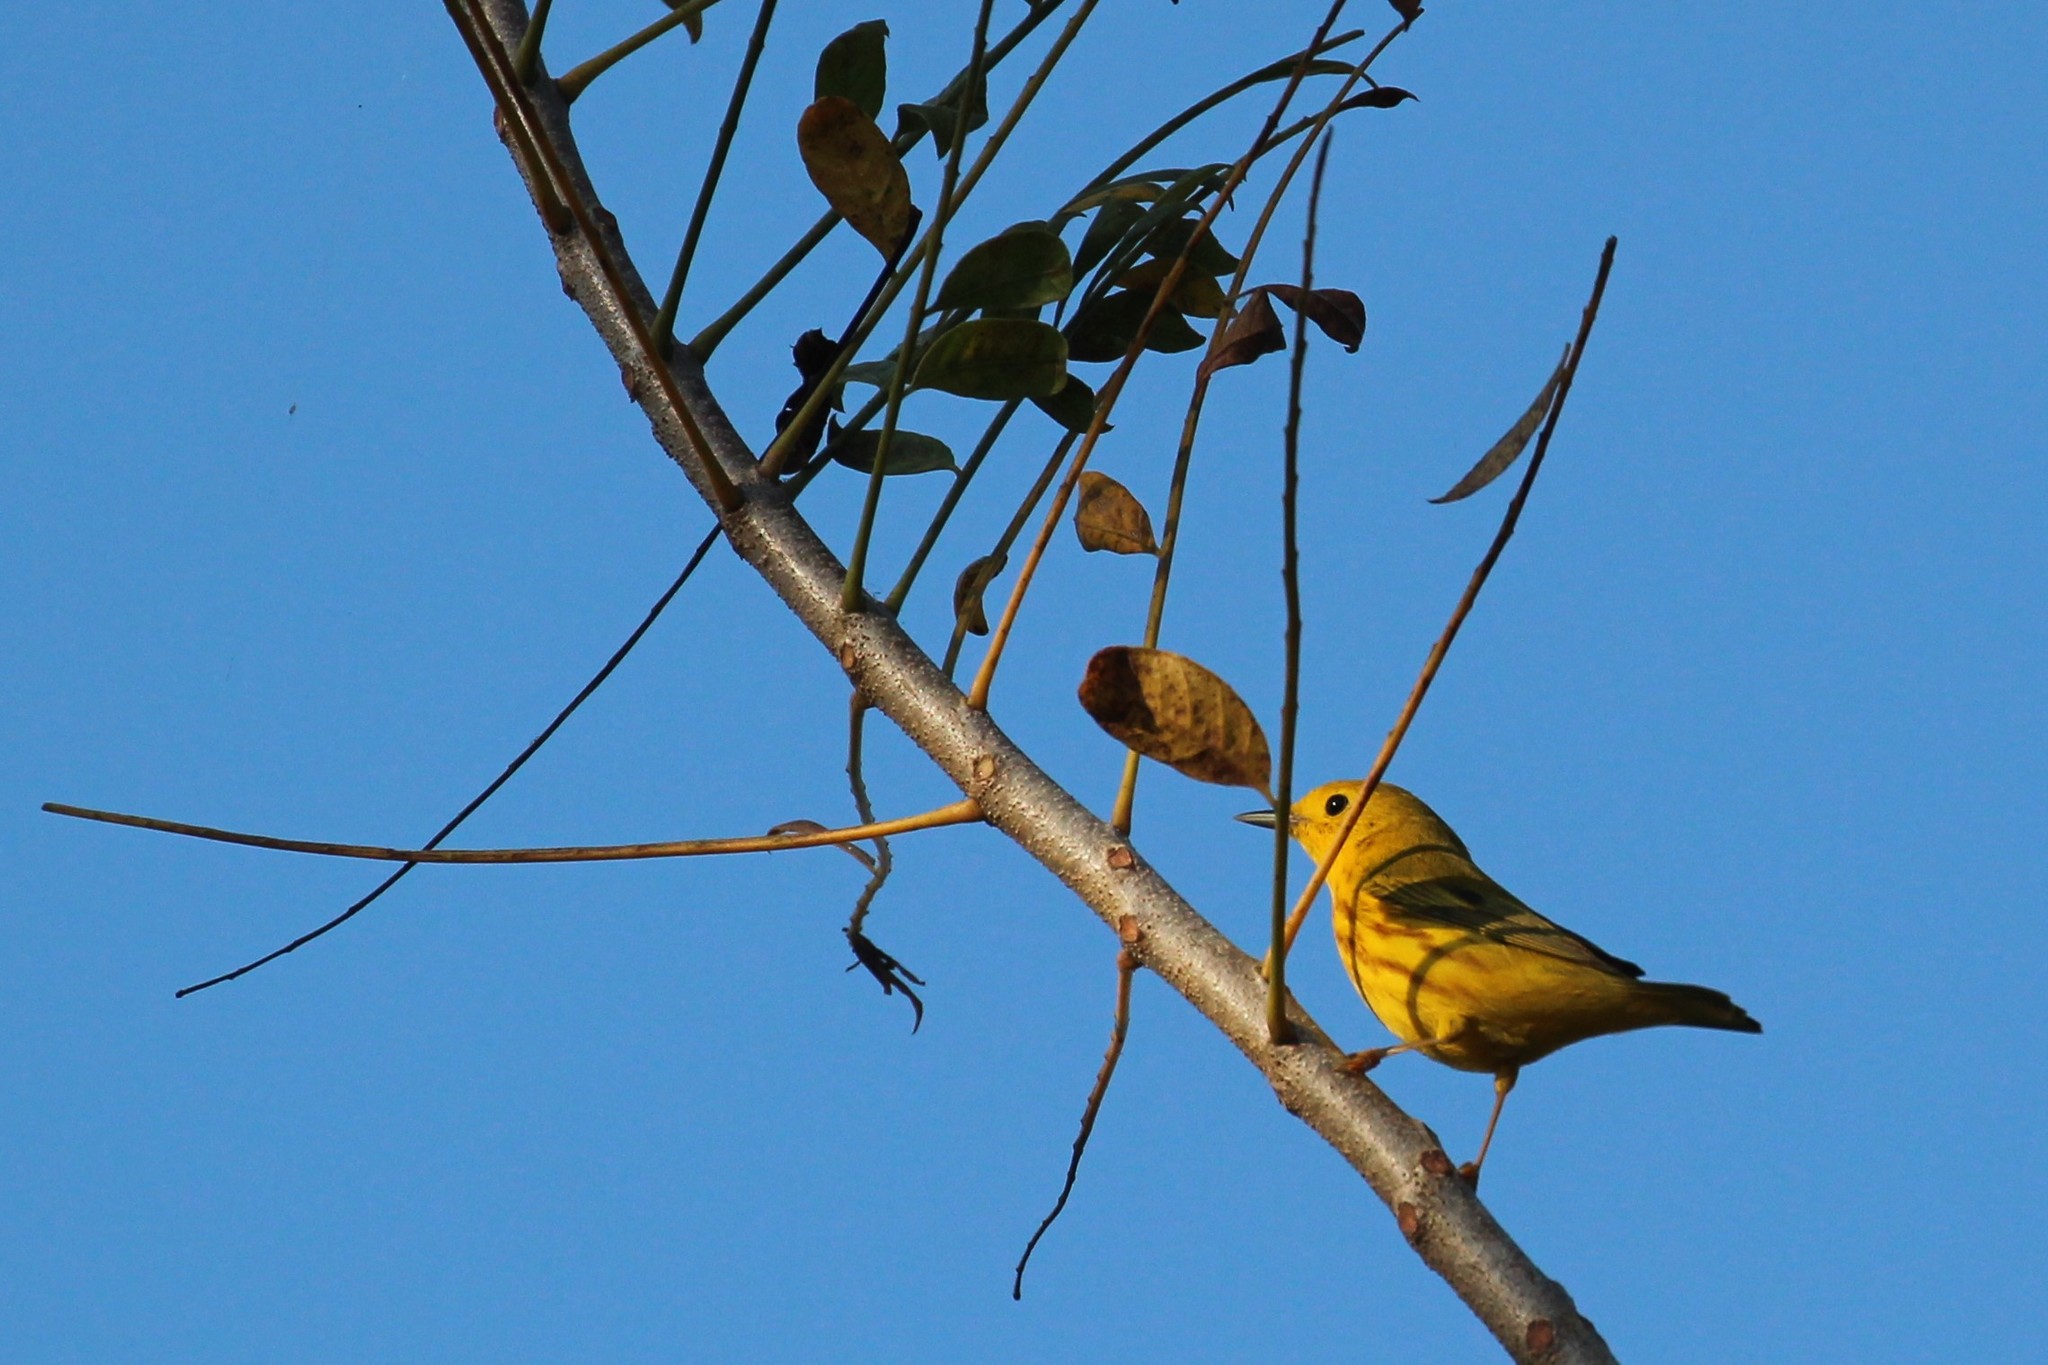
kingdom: Animalia
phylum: Chordata
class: Aves
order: Passeriformes
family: Parulidae
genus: Setophaga
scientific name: Setophaga petechia
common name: Yellow warbler
